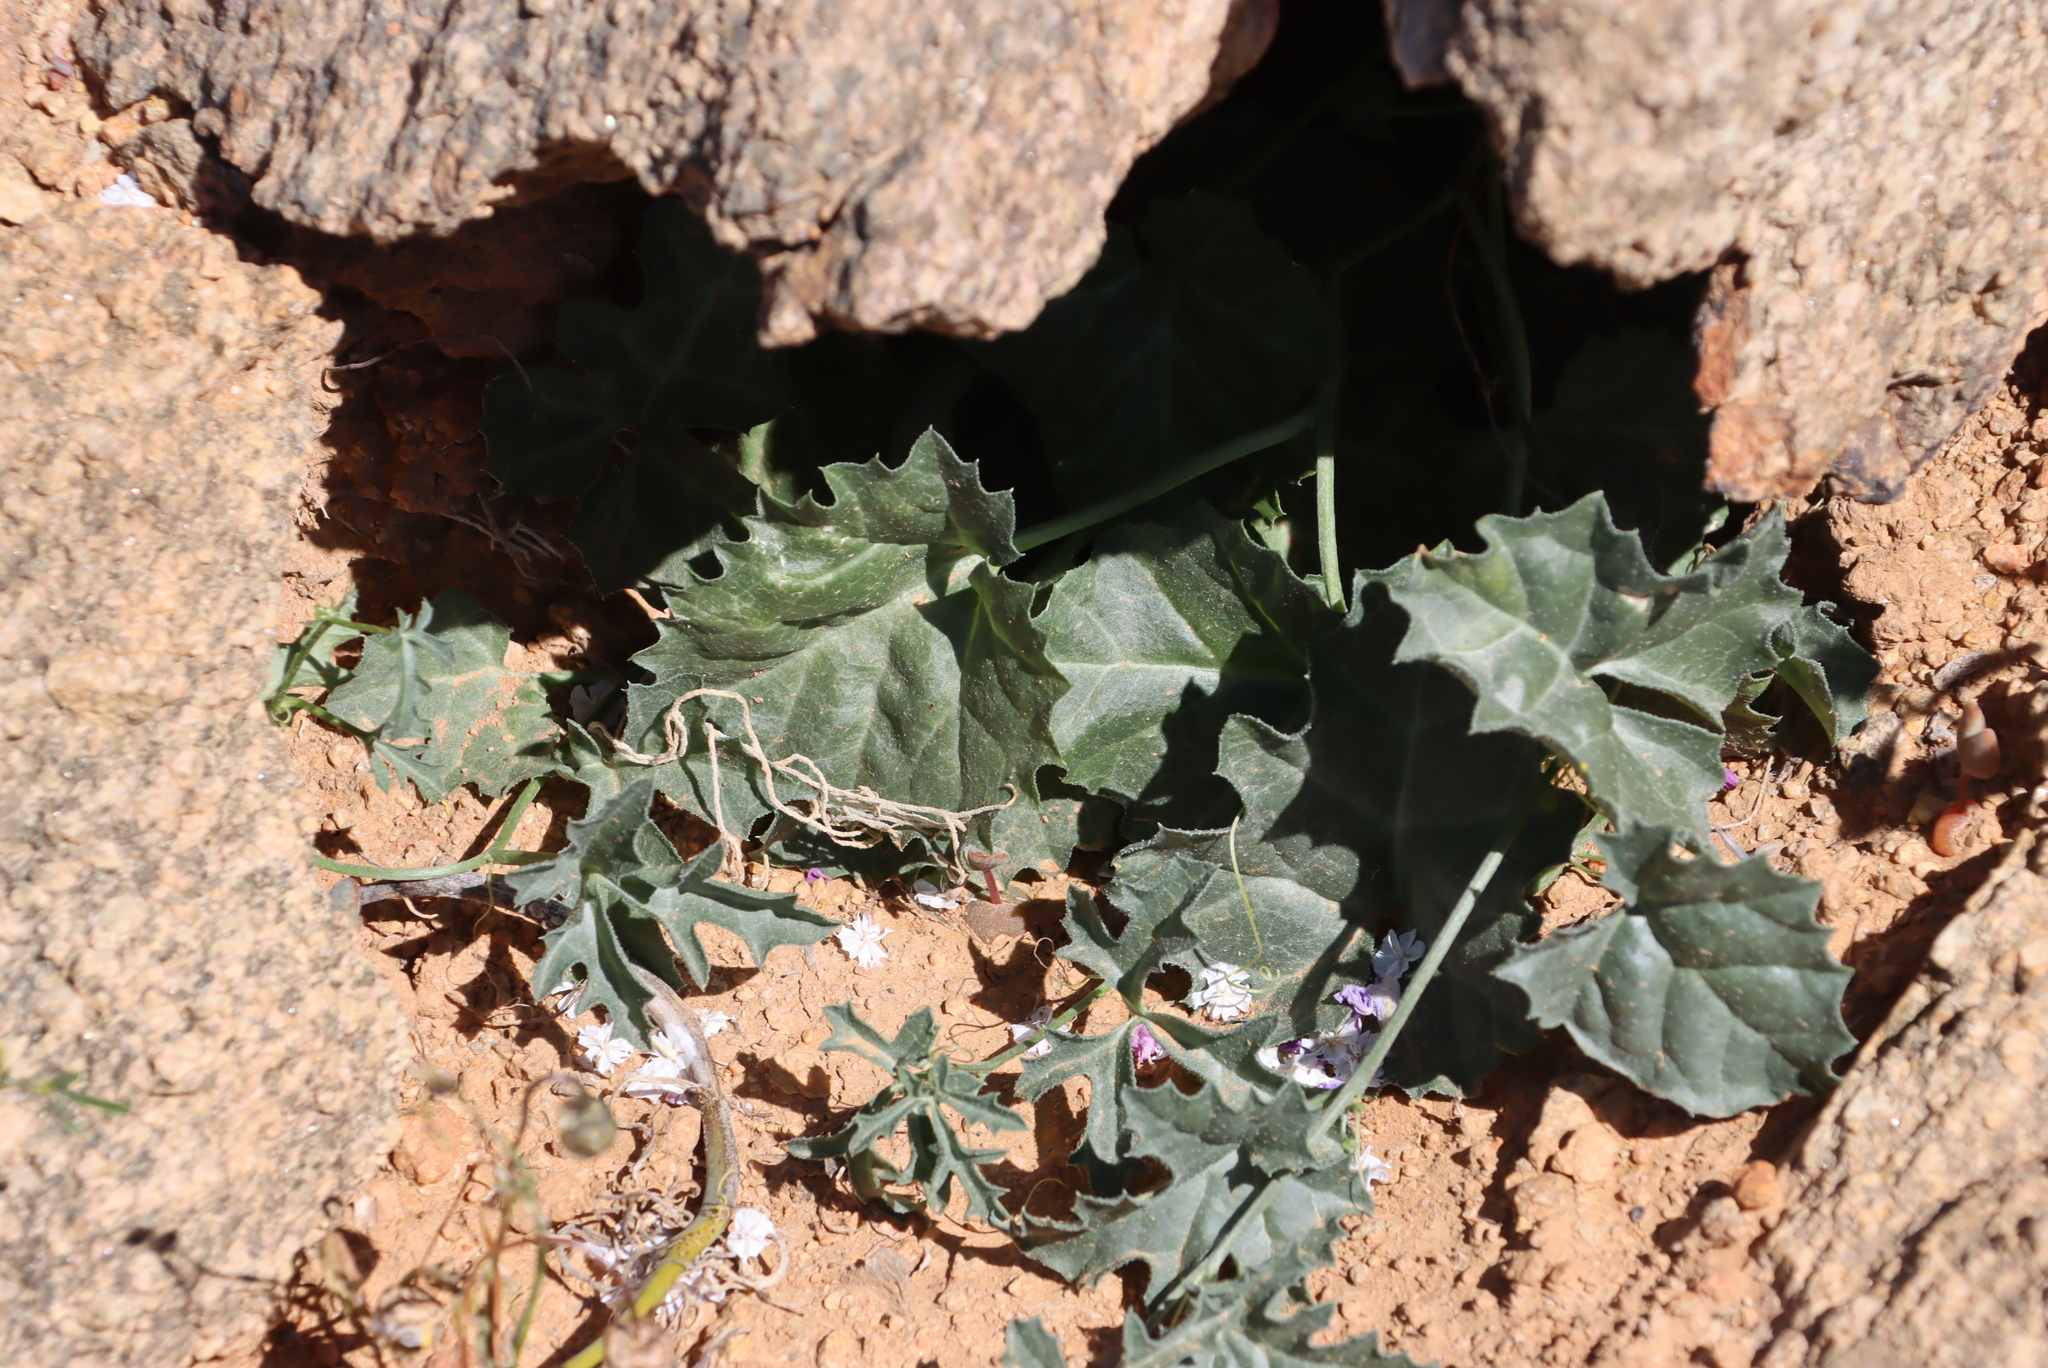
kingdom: Plantae
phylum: Tracheophyta
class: Magnoliopsida
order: Cucurbitales
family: Cucurbitaceae
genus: Kedrostis
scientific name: Kedrostis capensis
